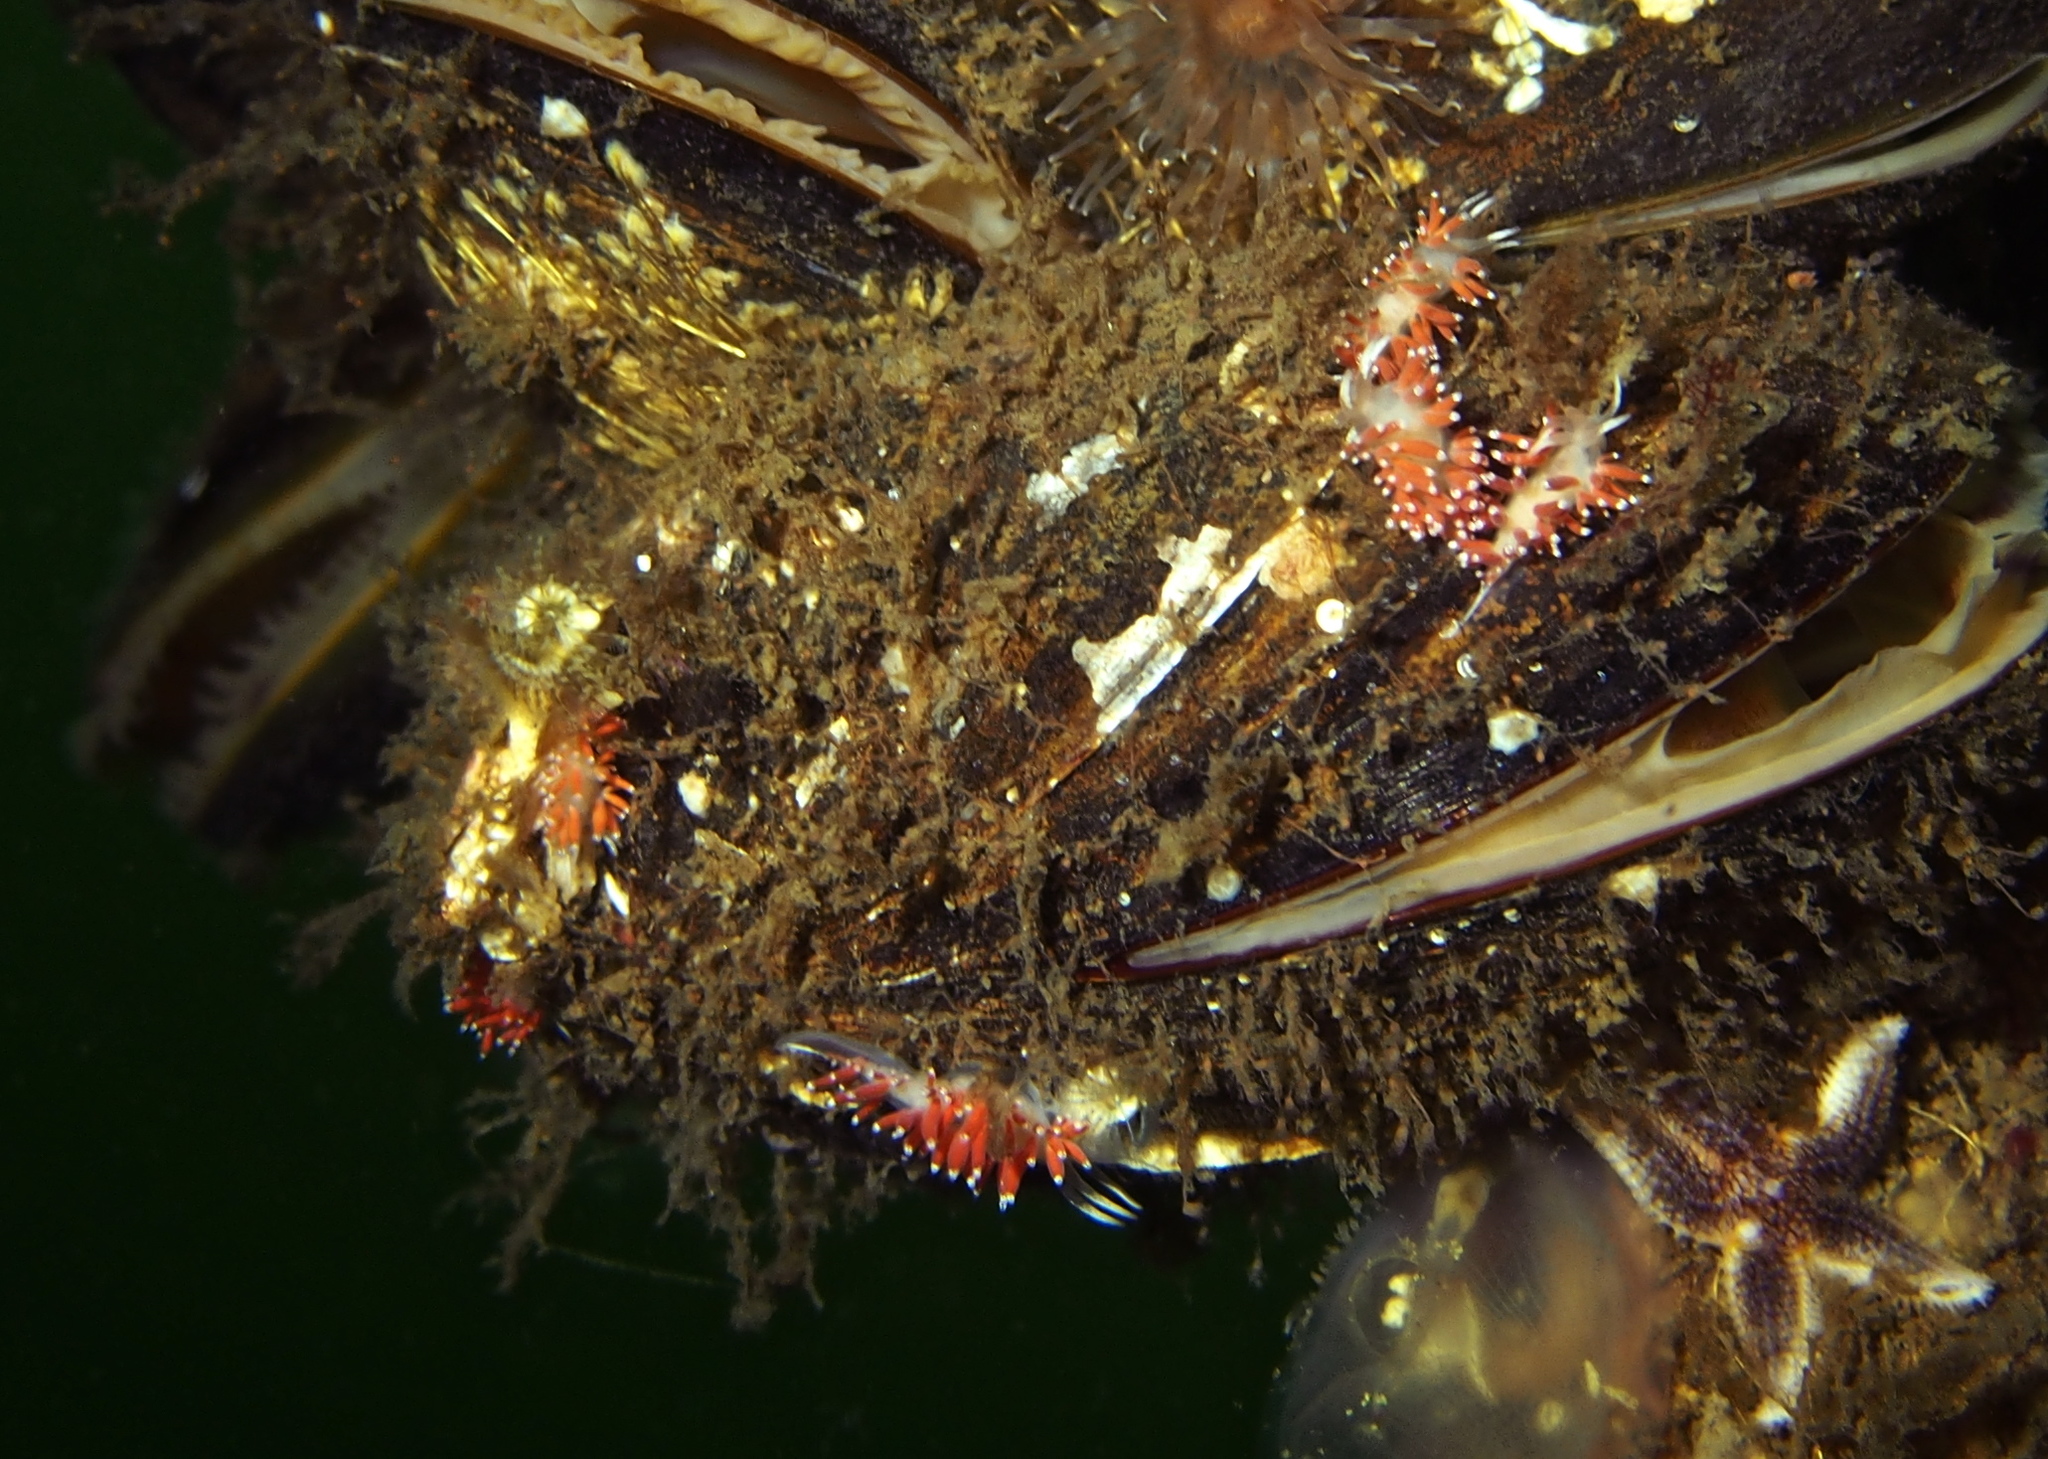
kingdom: Animalia
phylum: Mollusca
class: Gastropoda
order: Nudibranchia
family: Coryphellidae
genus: Coryphella
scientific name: Coryphella gracilis
